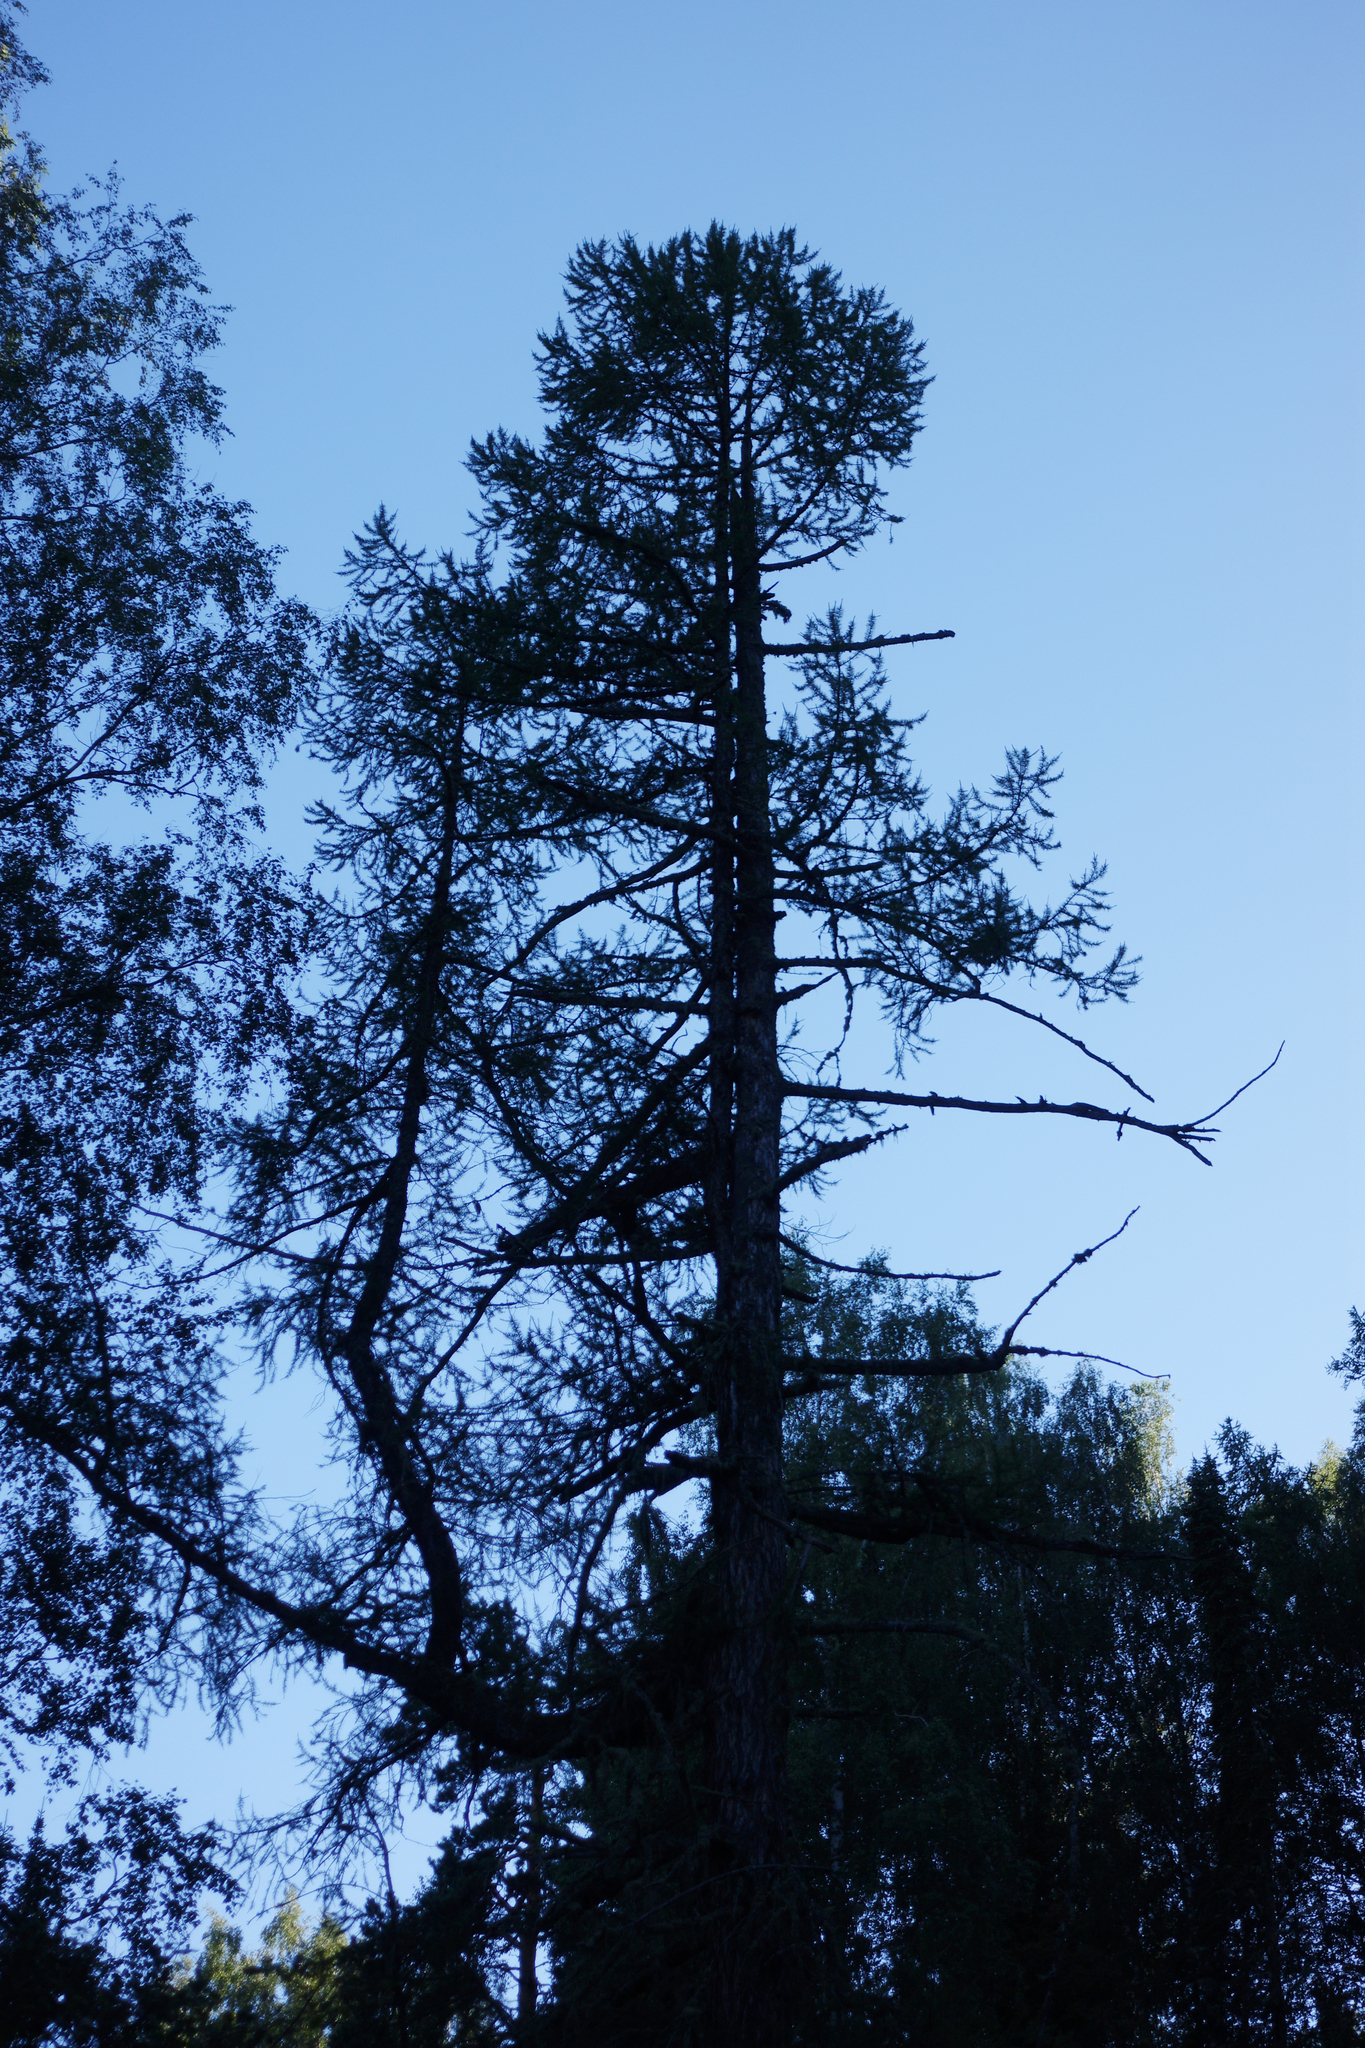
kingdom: Plantae
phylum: Tracheophyta
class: Pinopsida
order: Pinales
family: Pinaceae
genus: Larix
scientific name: Larix sibirica
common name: Siberian larch
